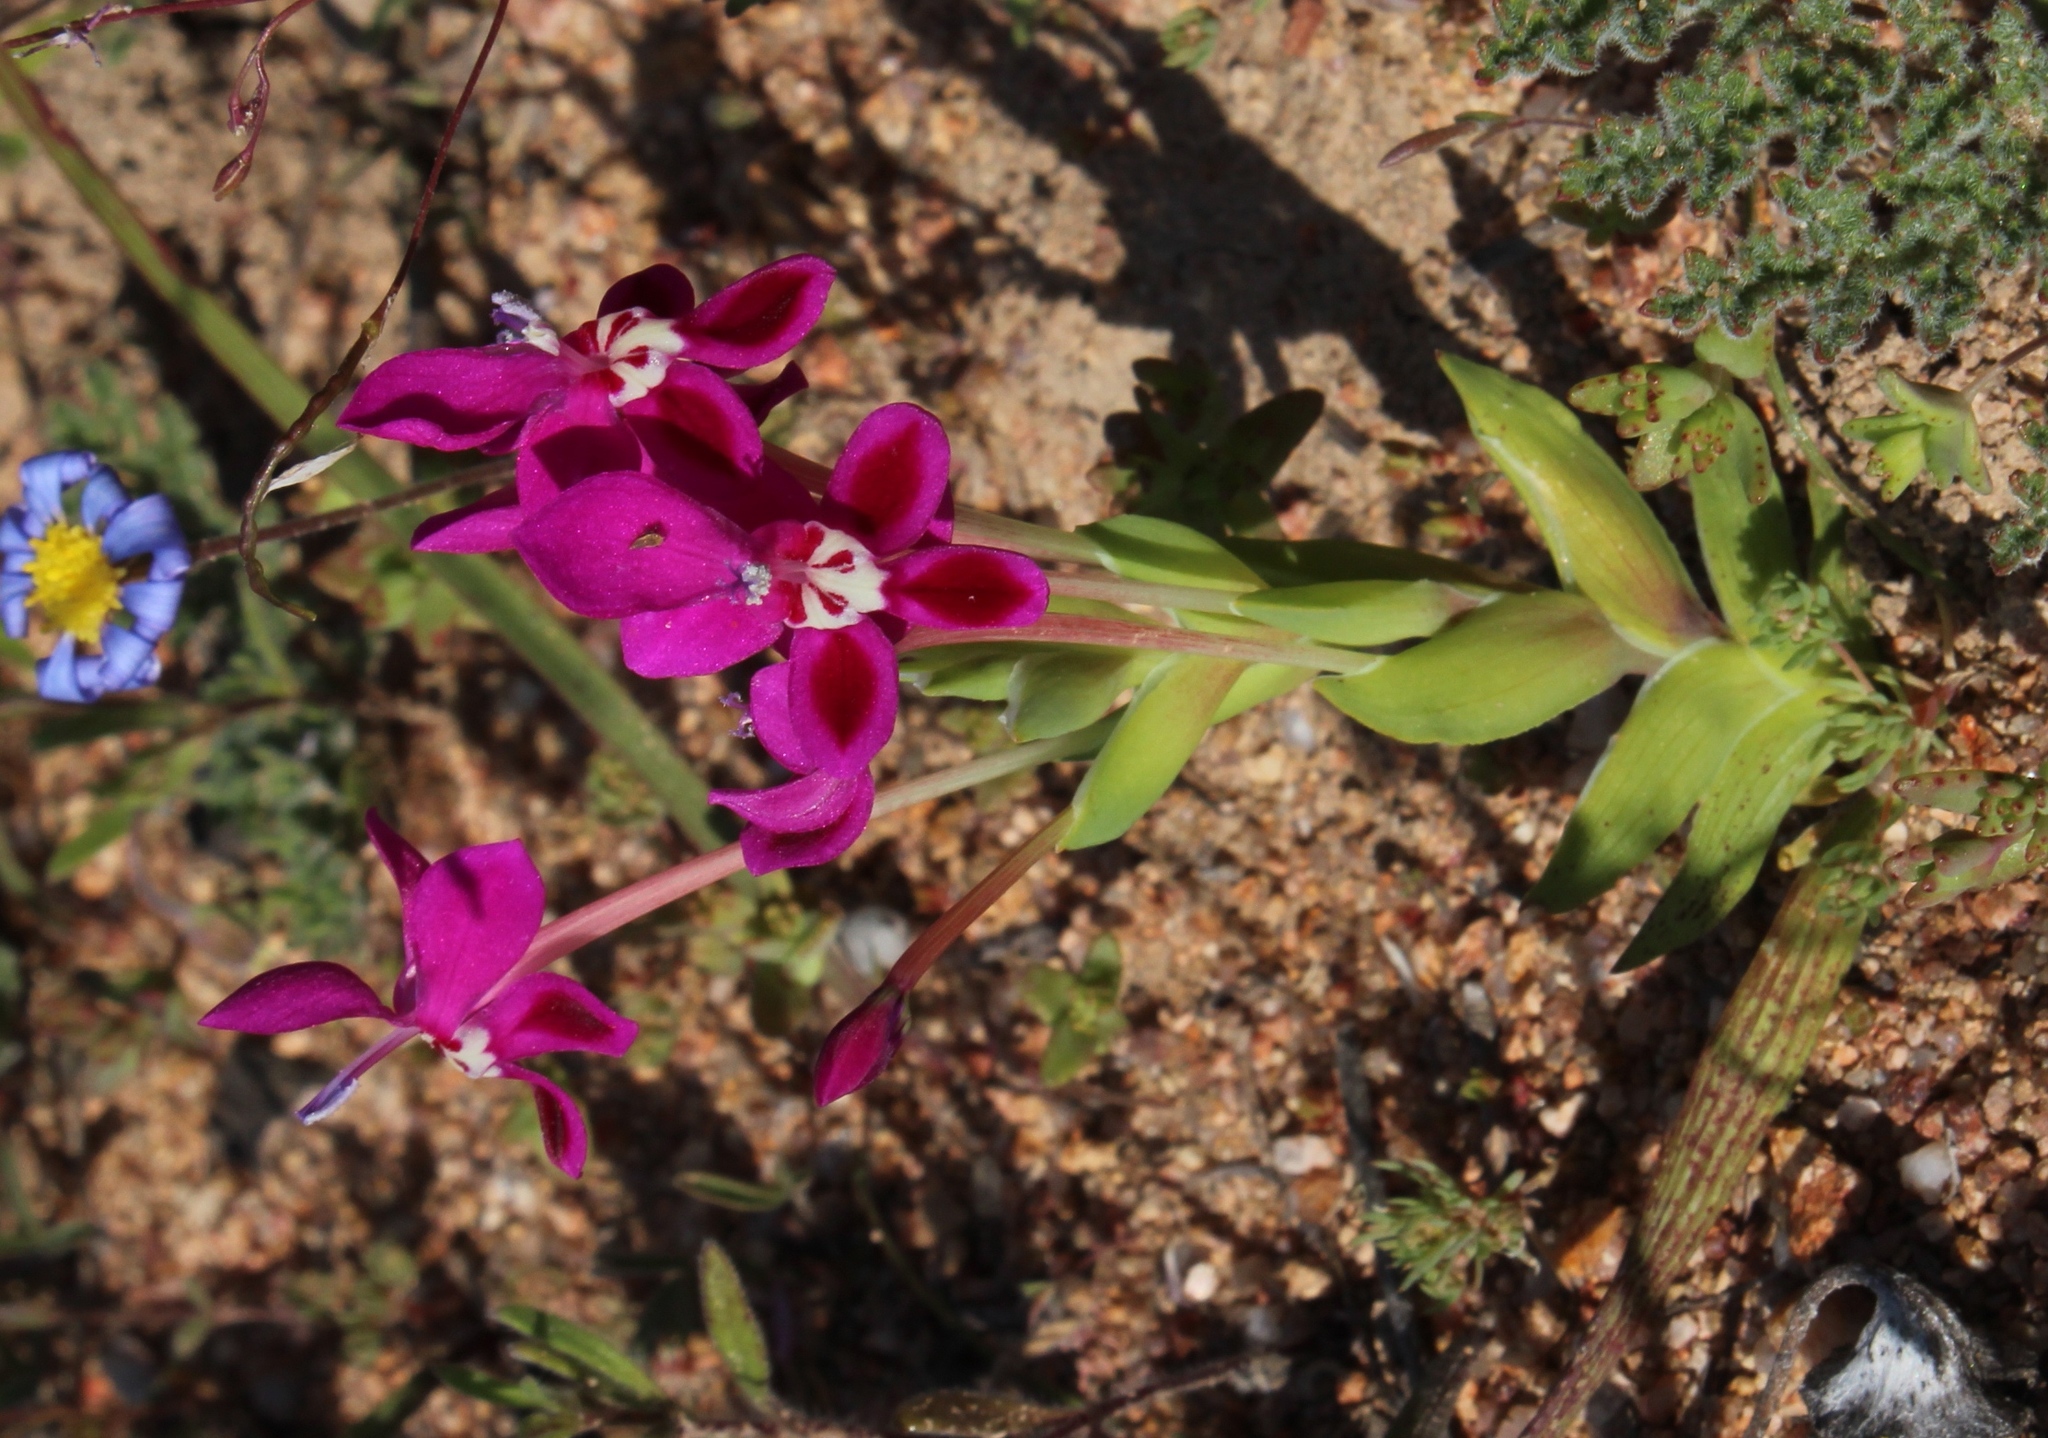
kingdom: Plantae
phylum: Tracheophyta
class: Liliopsida
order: Asparagales
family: Iridaceae
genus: Lapeirousia
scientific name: Lapeirousia silenoides
